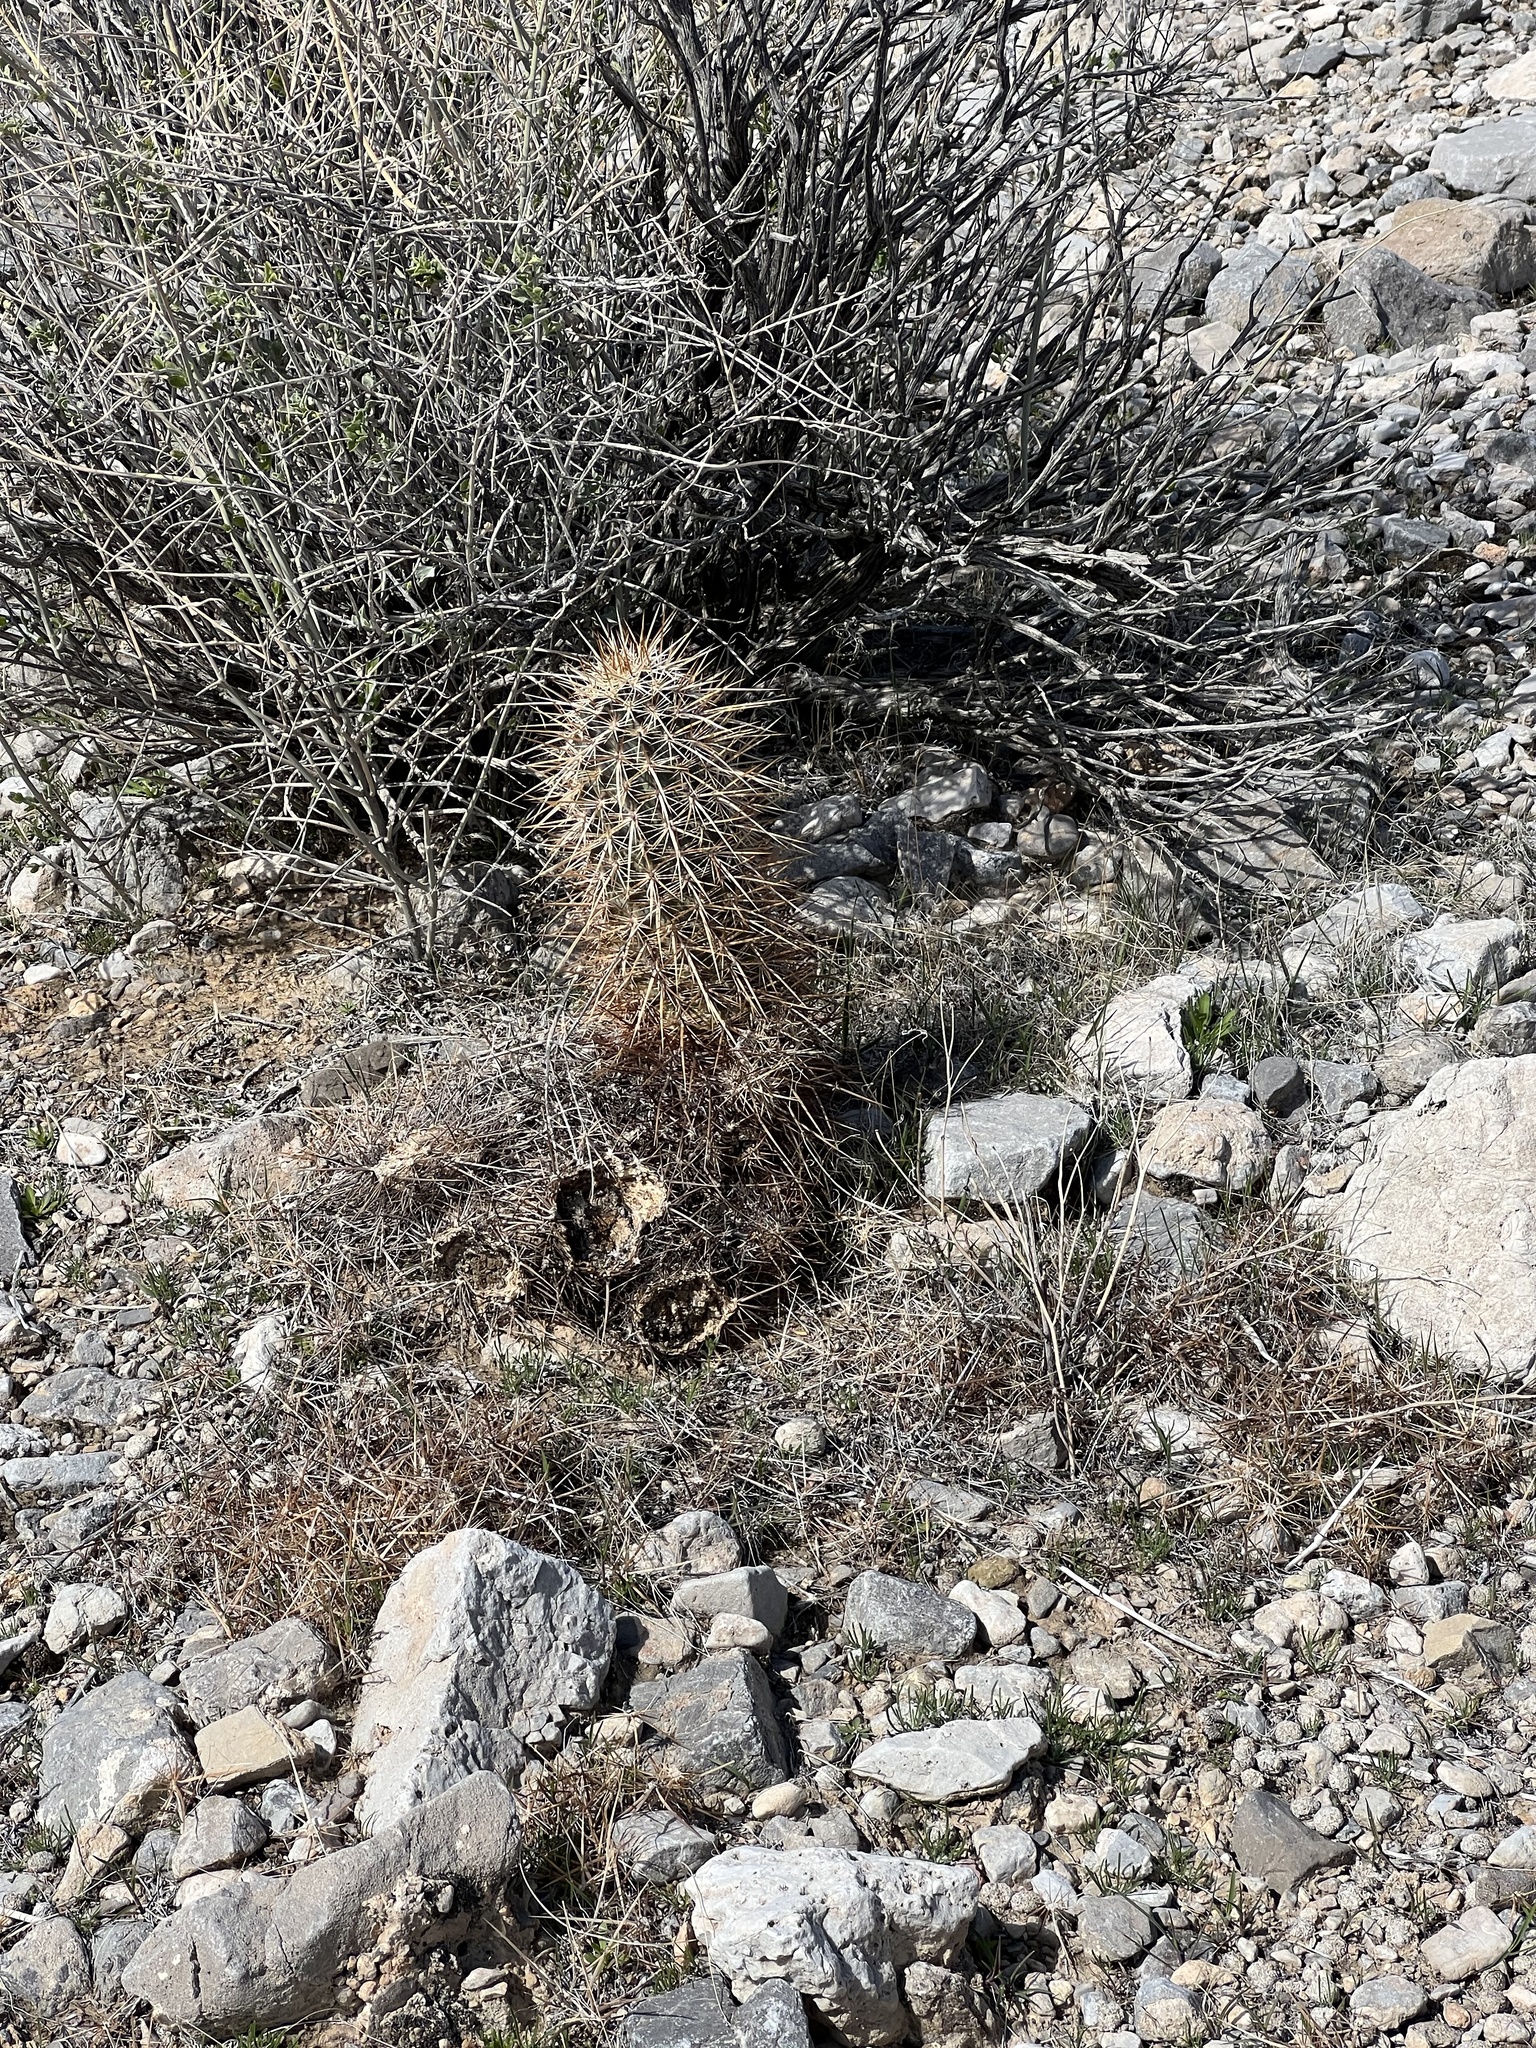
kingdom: Plantae
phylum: Tracheophyta
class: Magnoliopsida
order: Caryophyllales
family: Cactaceae
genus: Echinocereus
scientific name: Echinocereus engelmannii
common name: Engelmann's hedgehog cactus
